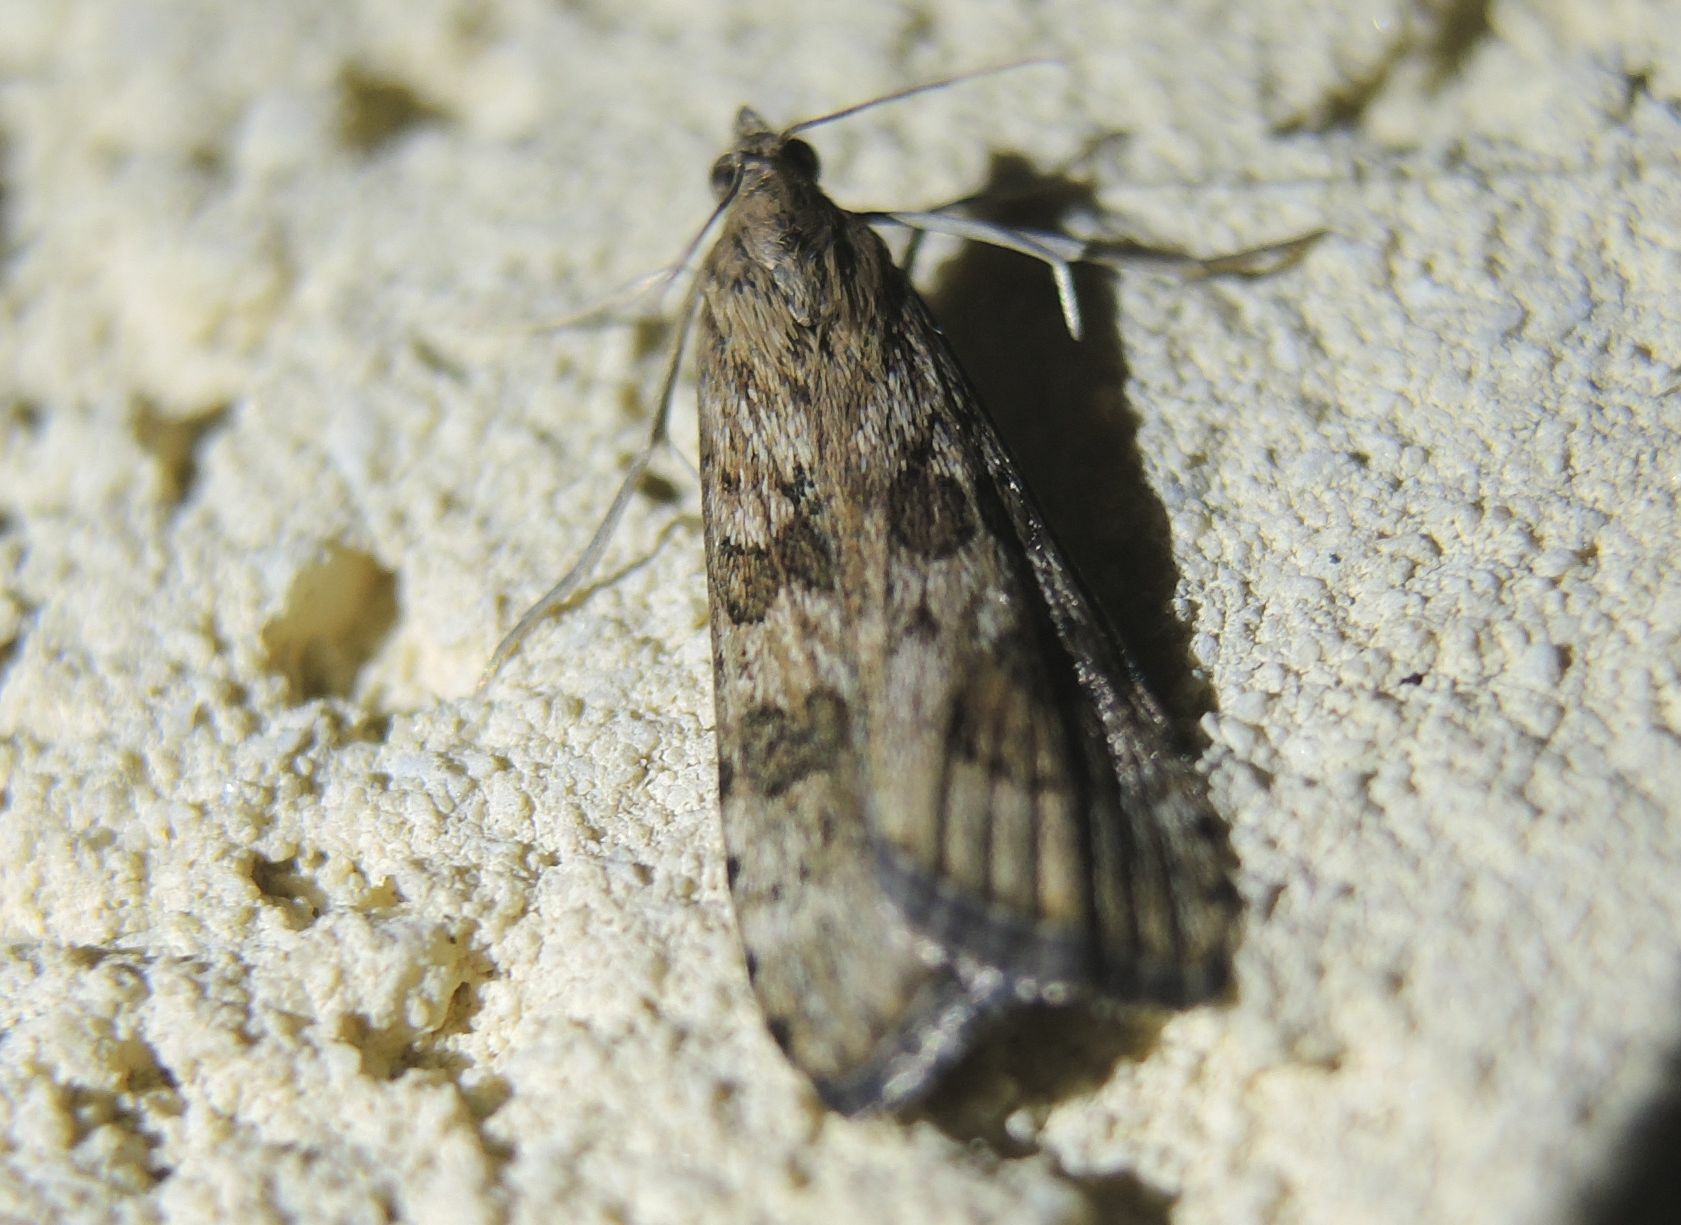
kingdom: Animalia
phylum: Arthropoda
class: Insecta
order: Lepidoptera
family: Crambidae
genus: Nomophila
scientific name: Nomophila noctuella
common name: Rush veneer
